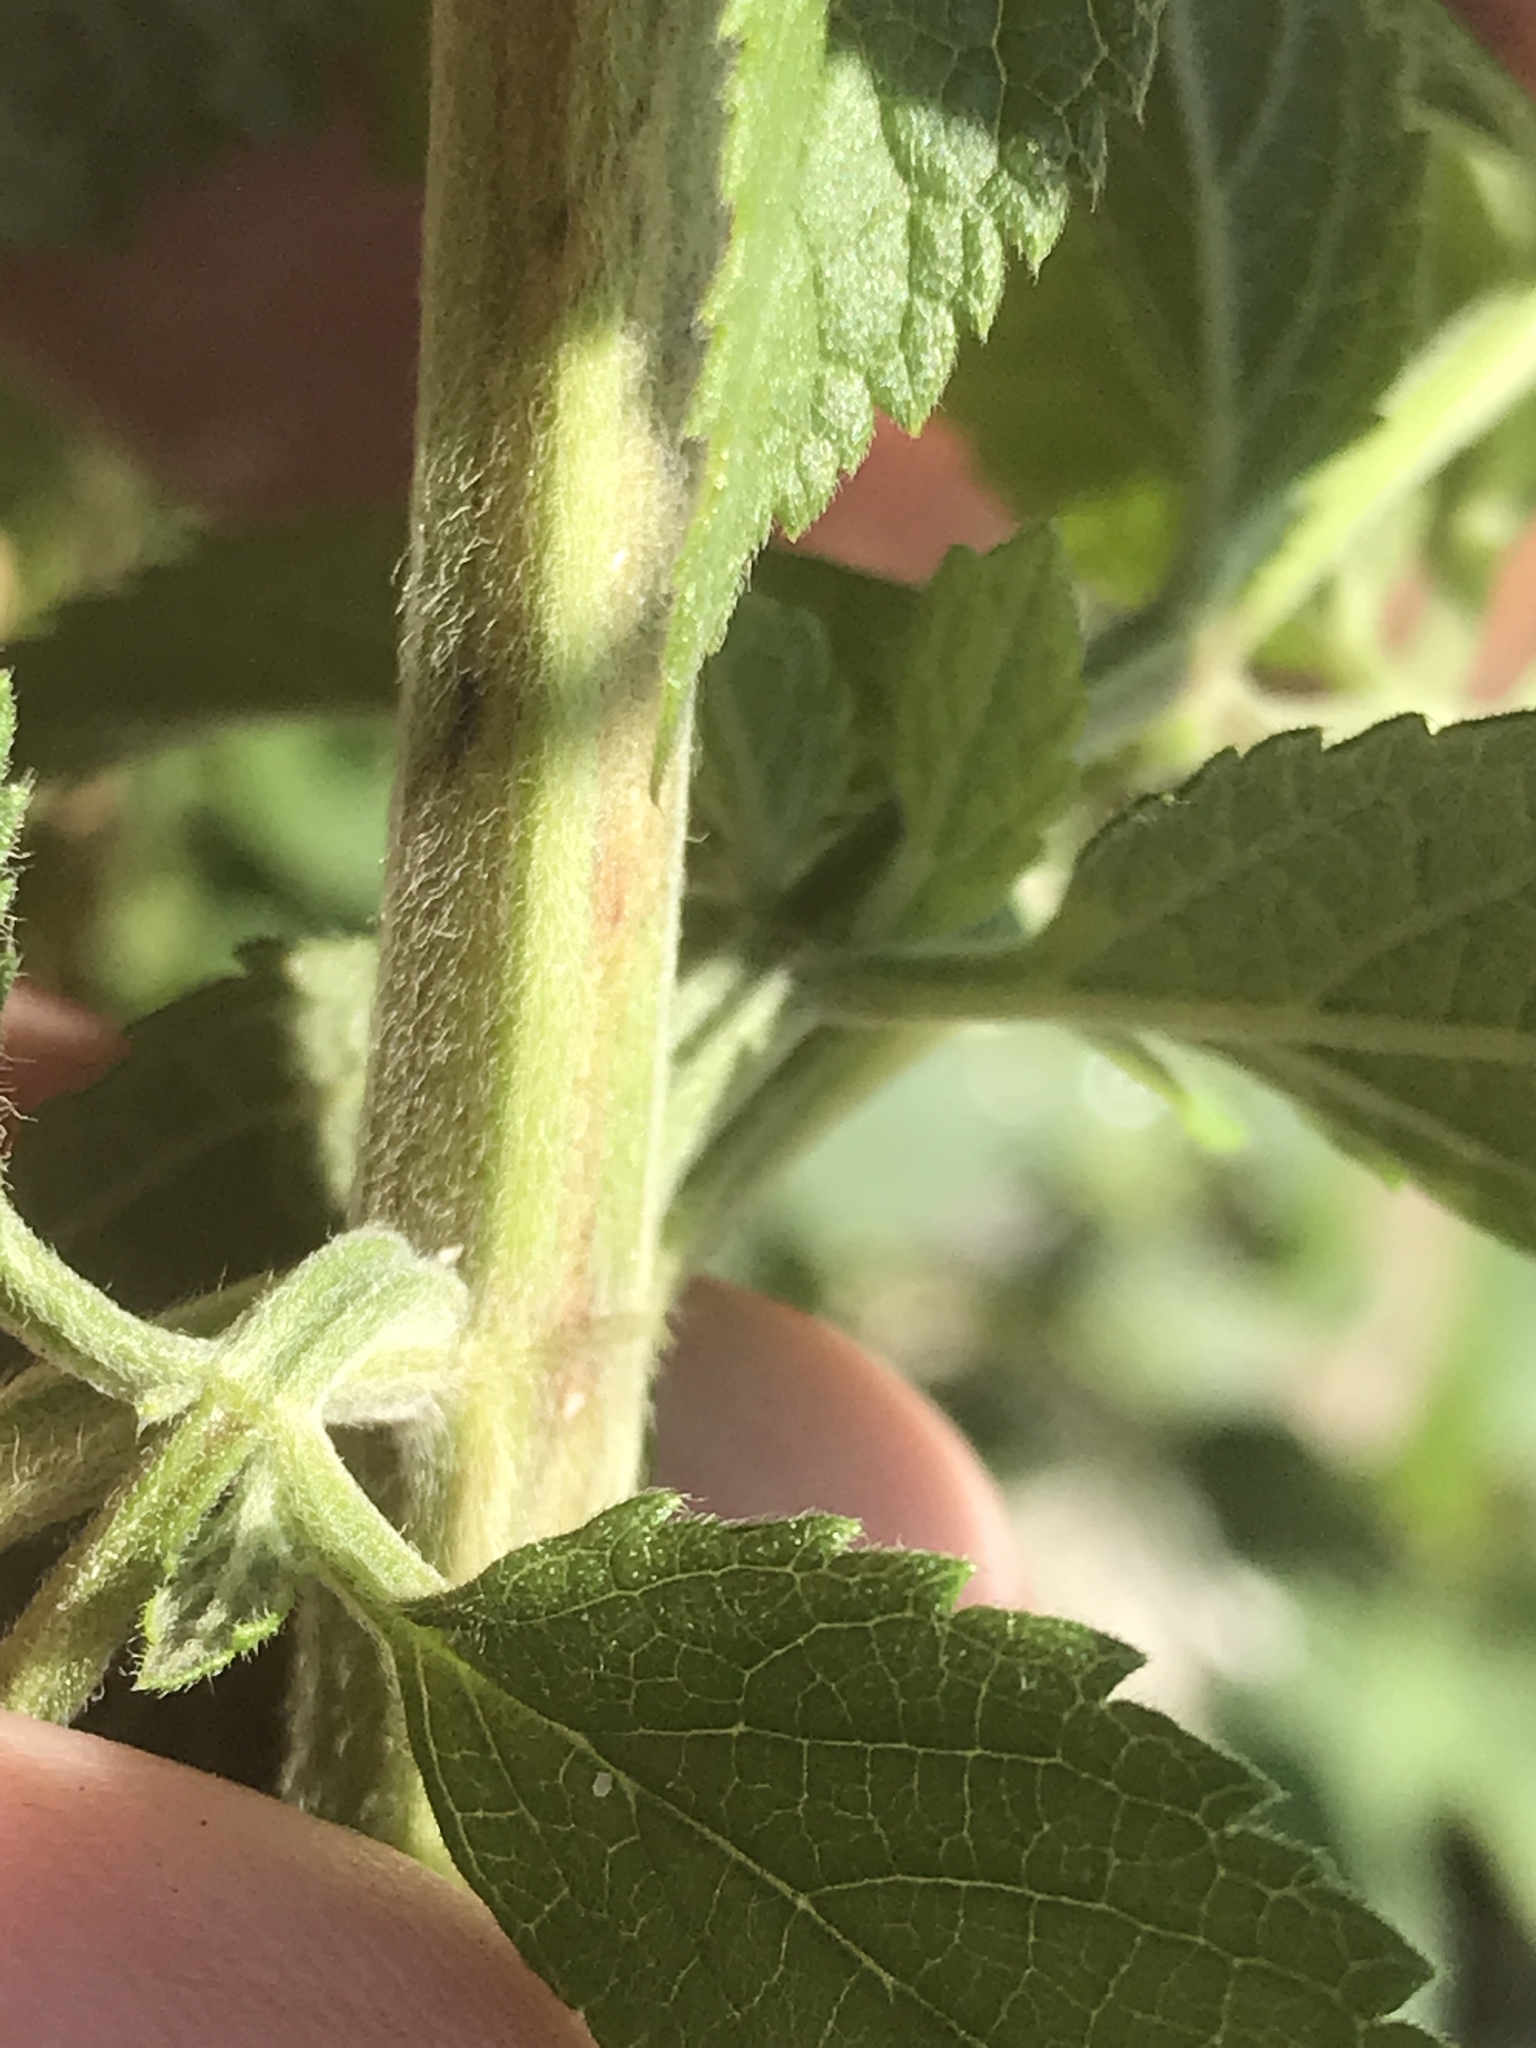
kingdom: Plantae
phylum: Tracheophyta
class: Magnoliopsida
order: Lamiales
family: Lamiaceae
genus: Teucrium
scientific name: Teucrium canadense
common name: American germander
